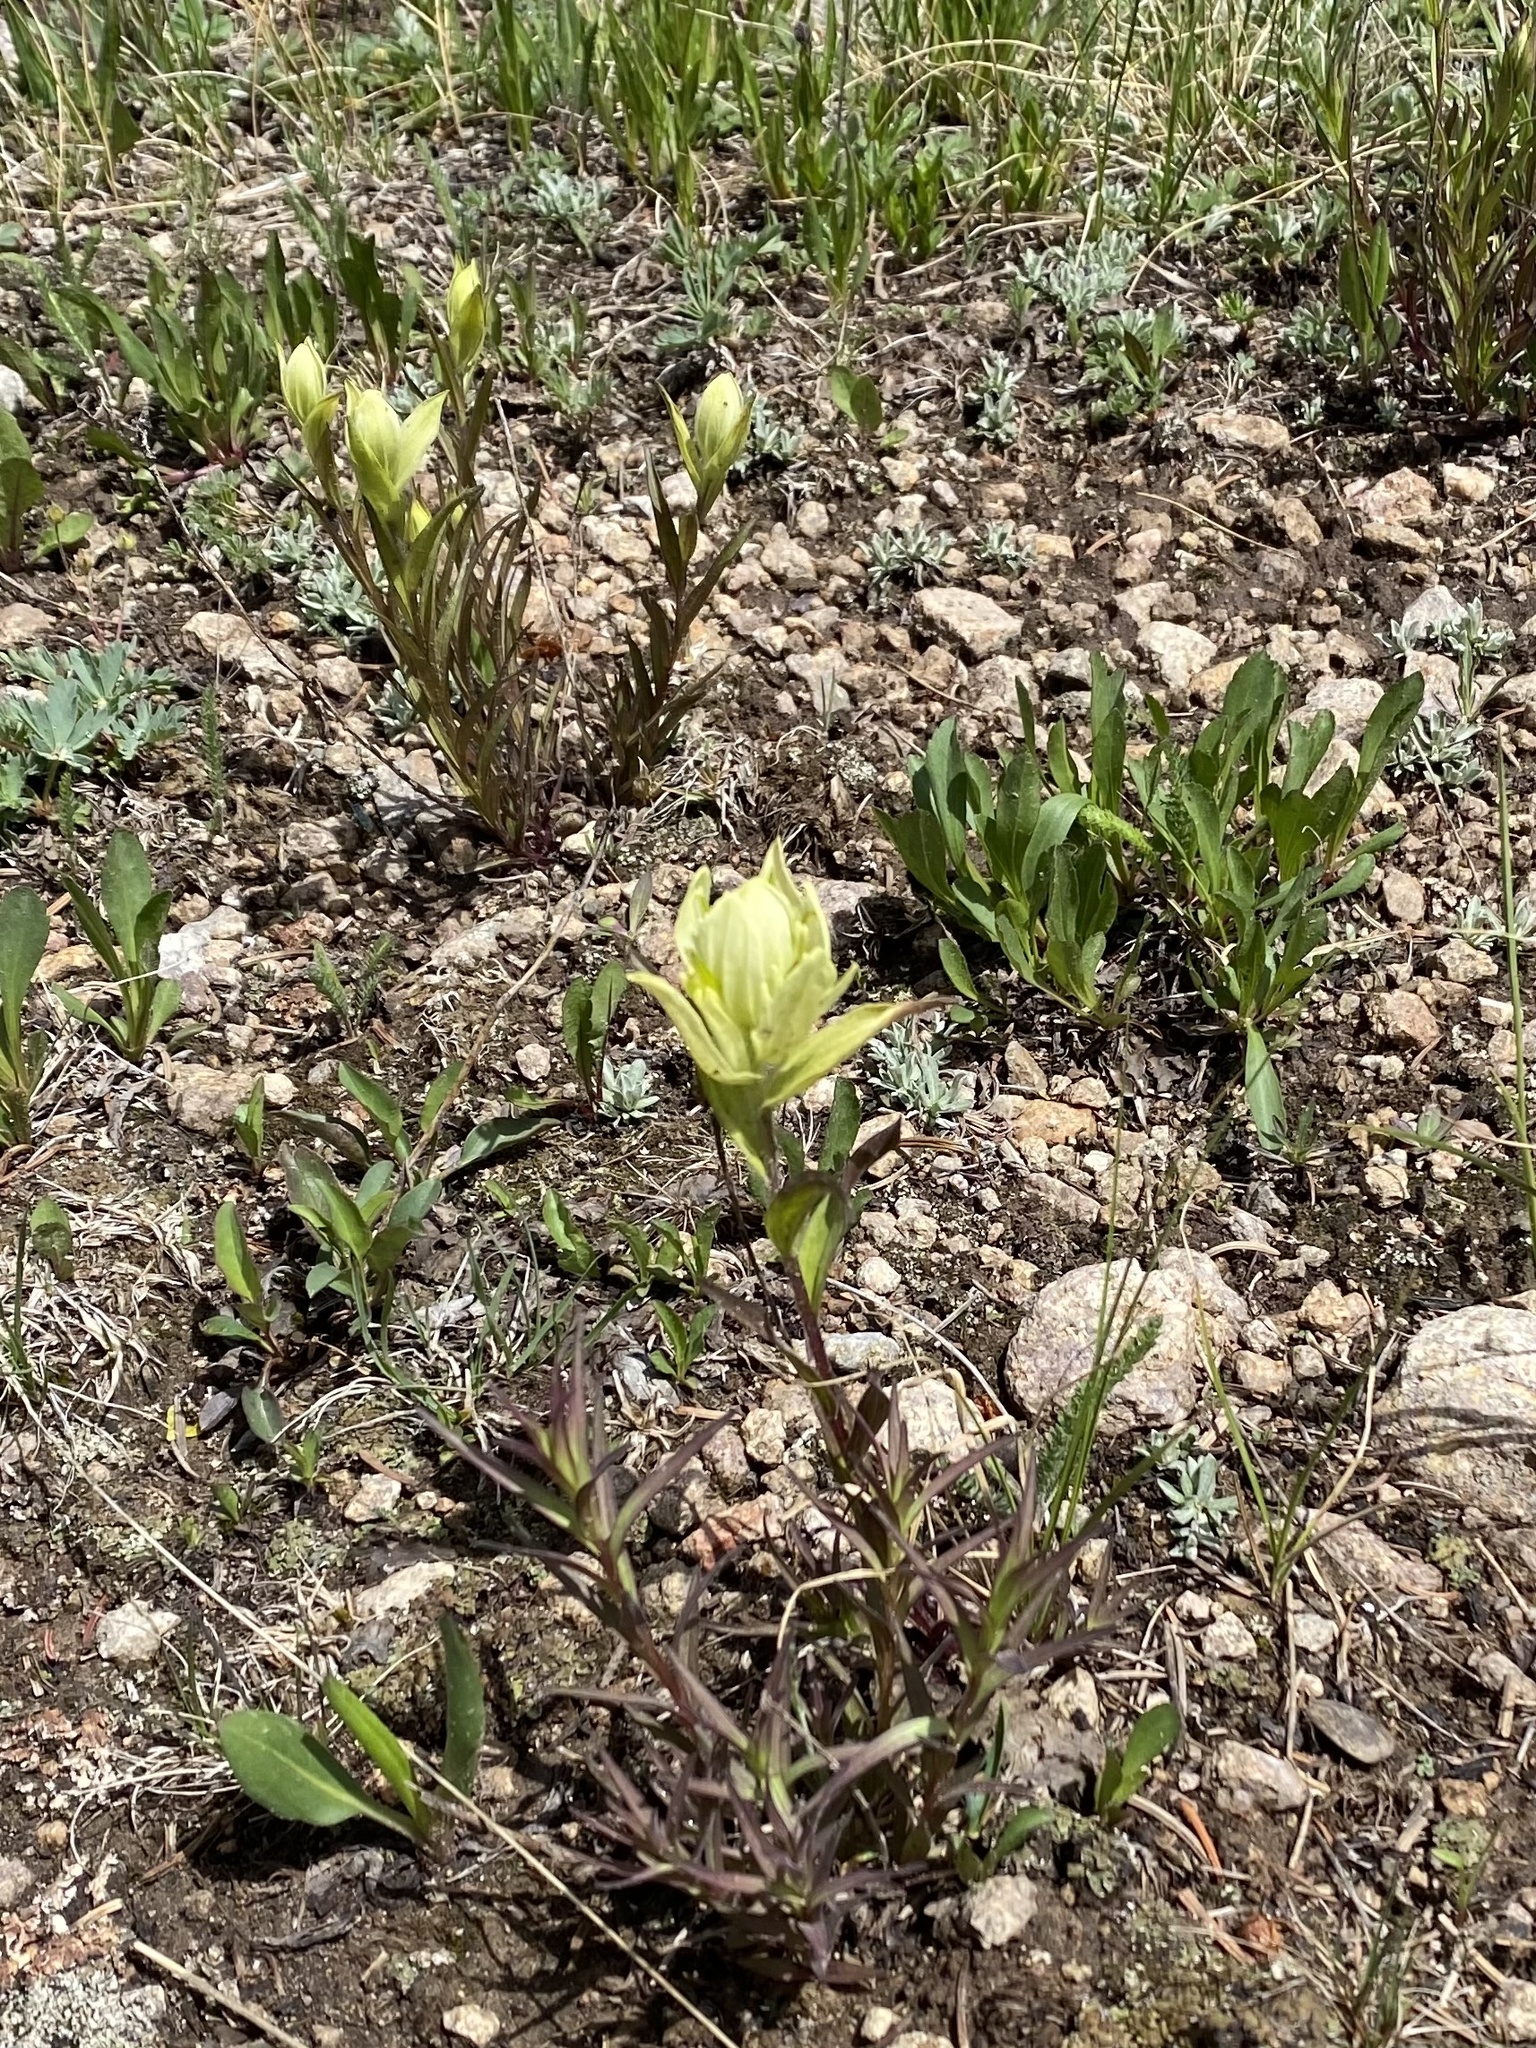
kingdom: Plantae
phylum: Tracheophyta
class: Magnoliopsida
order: Lamiales
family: Orobanchaceae
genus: Castilleja
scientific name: Castilleja occidentalis
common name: Western paintbrush
